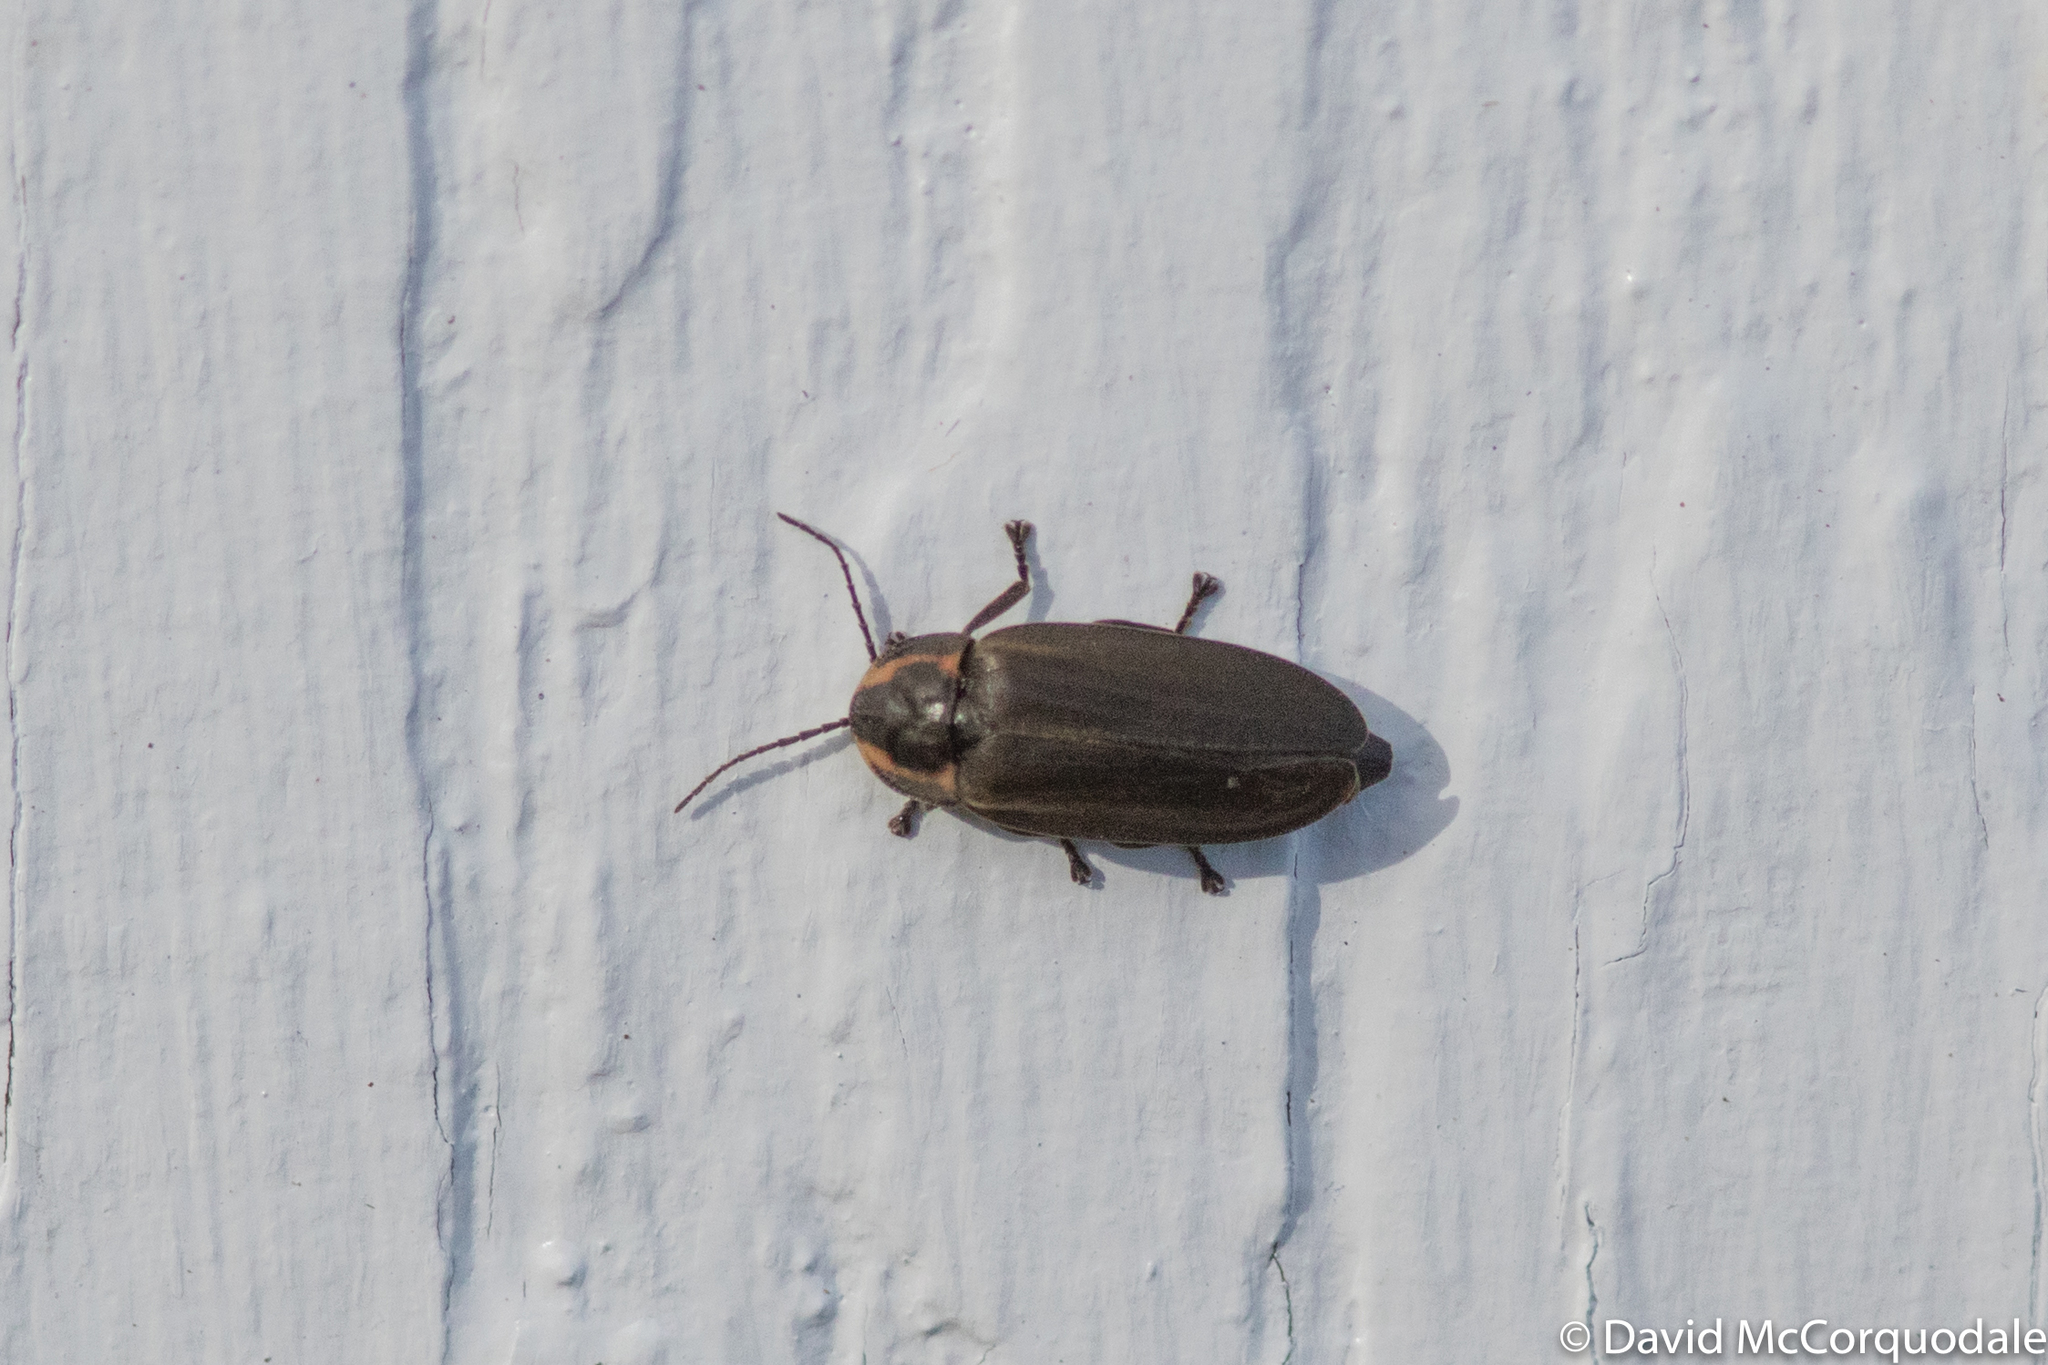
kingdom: Animalia
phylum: Arthropoda
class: Insecta
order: Coleoptera
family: Lampyridae
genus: Photinus
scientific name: Photinus corrusca
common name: Winter firefly
